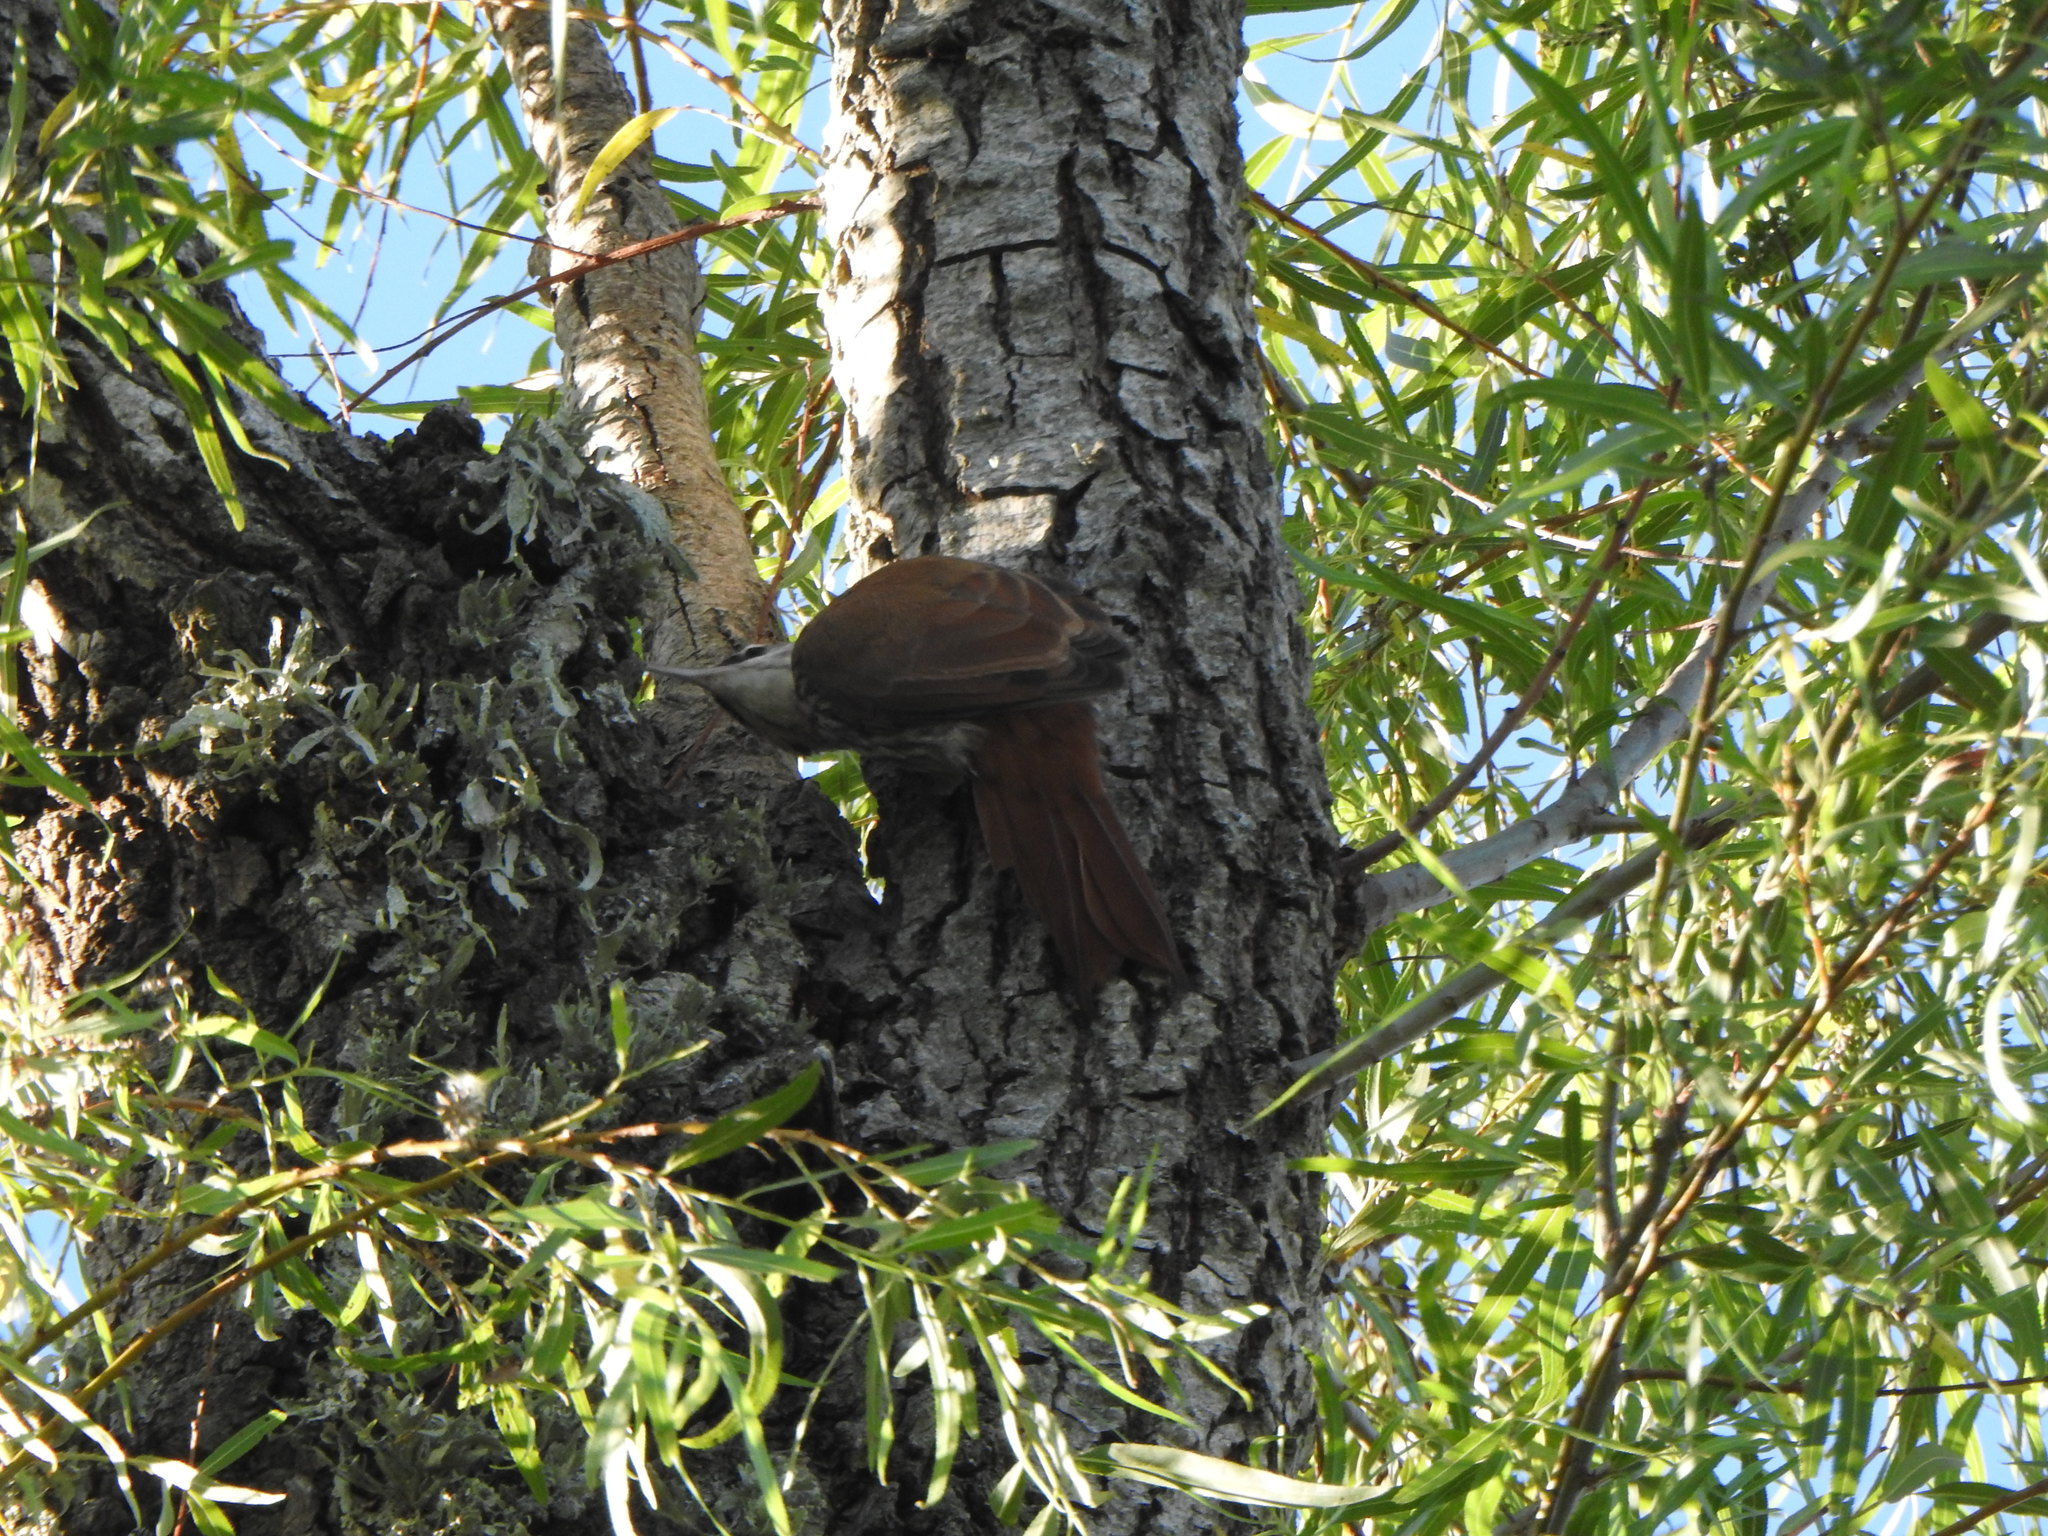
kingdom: Animalia
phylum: Chordata
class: Aves
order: Passeriformes
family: Furnariidae
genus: Lepidocolaptes
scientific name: Lepidocolaptes angustirostris
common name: Narrow-billed woodcreeper
